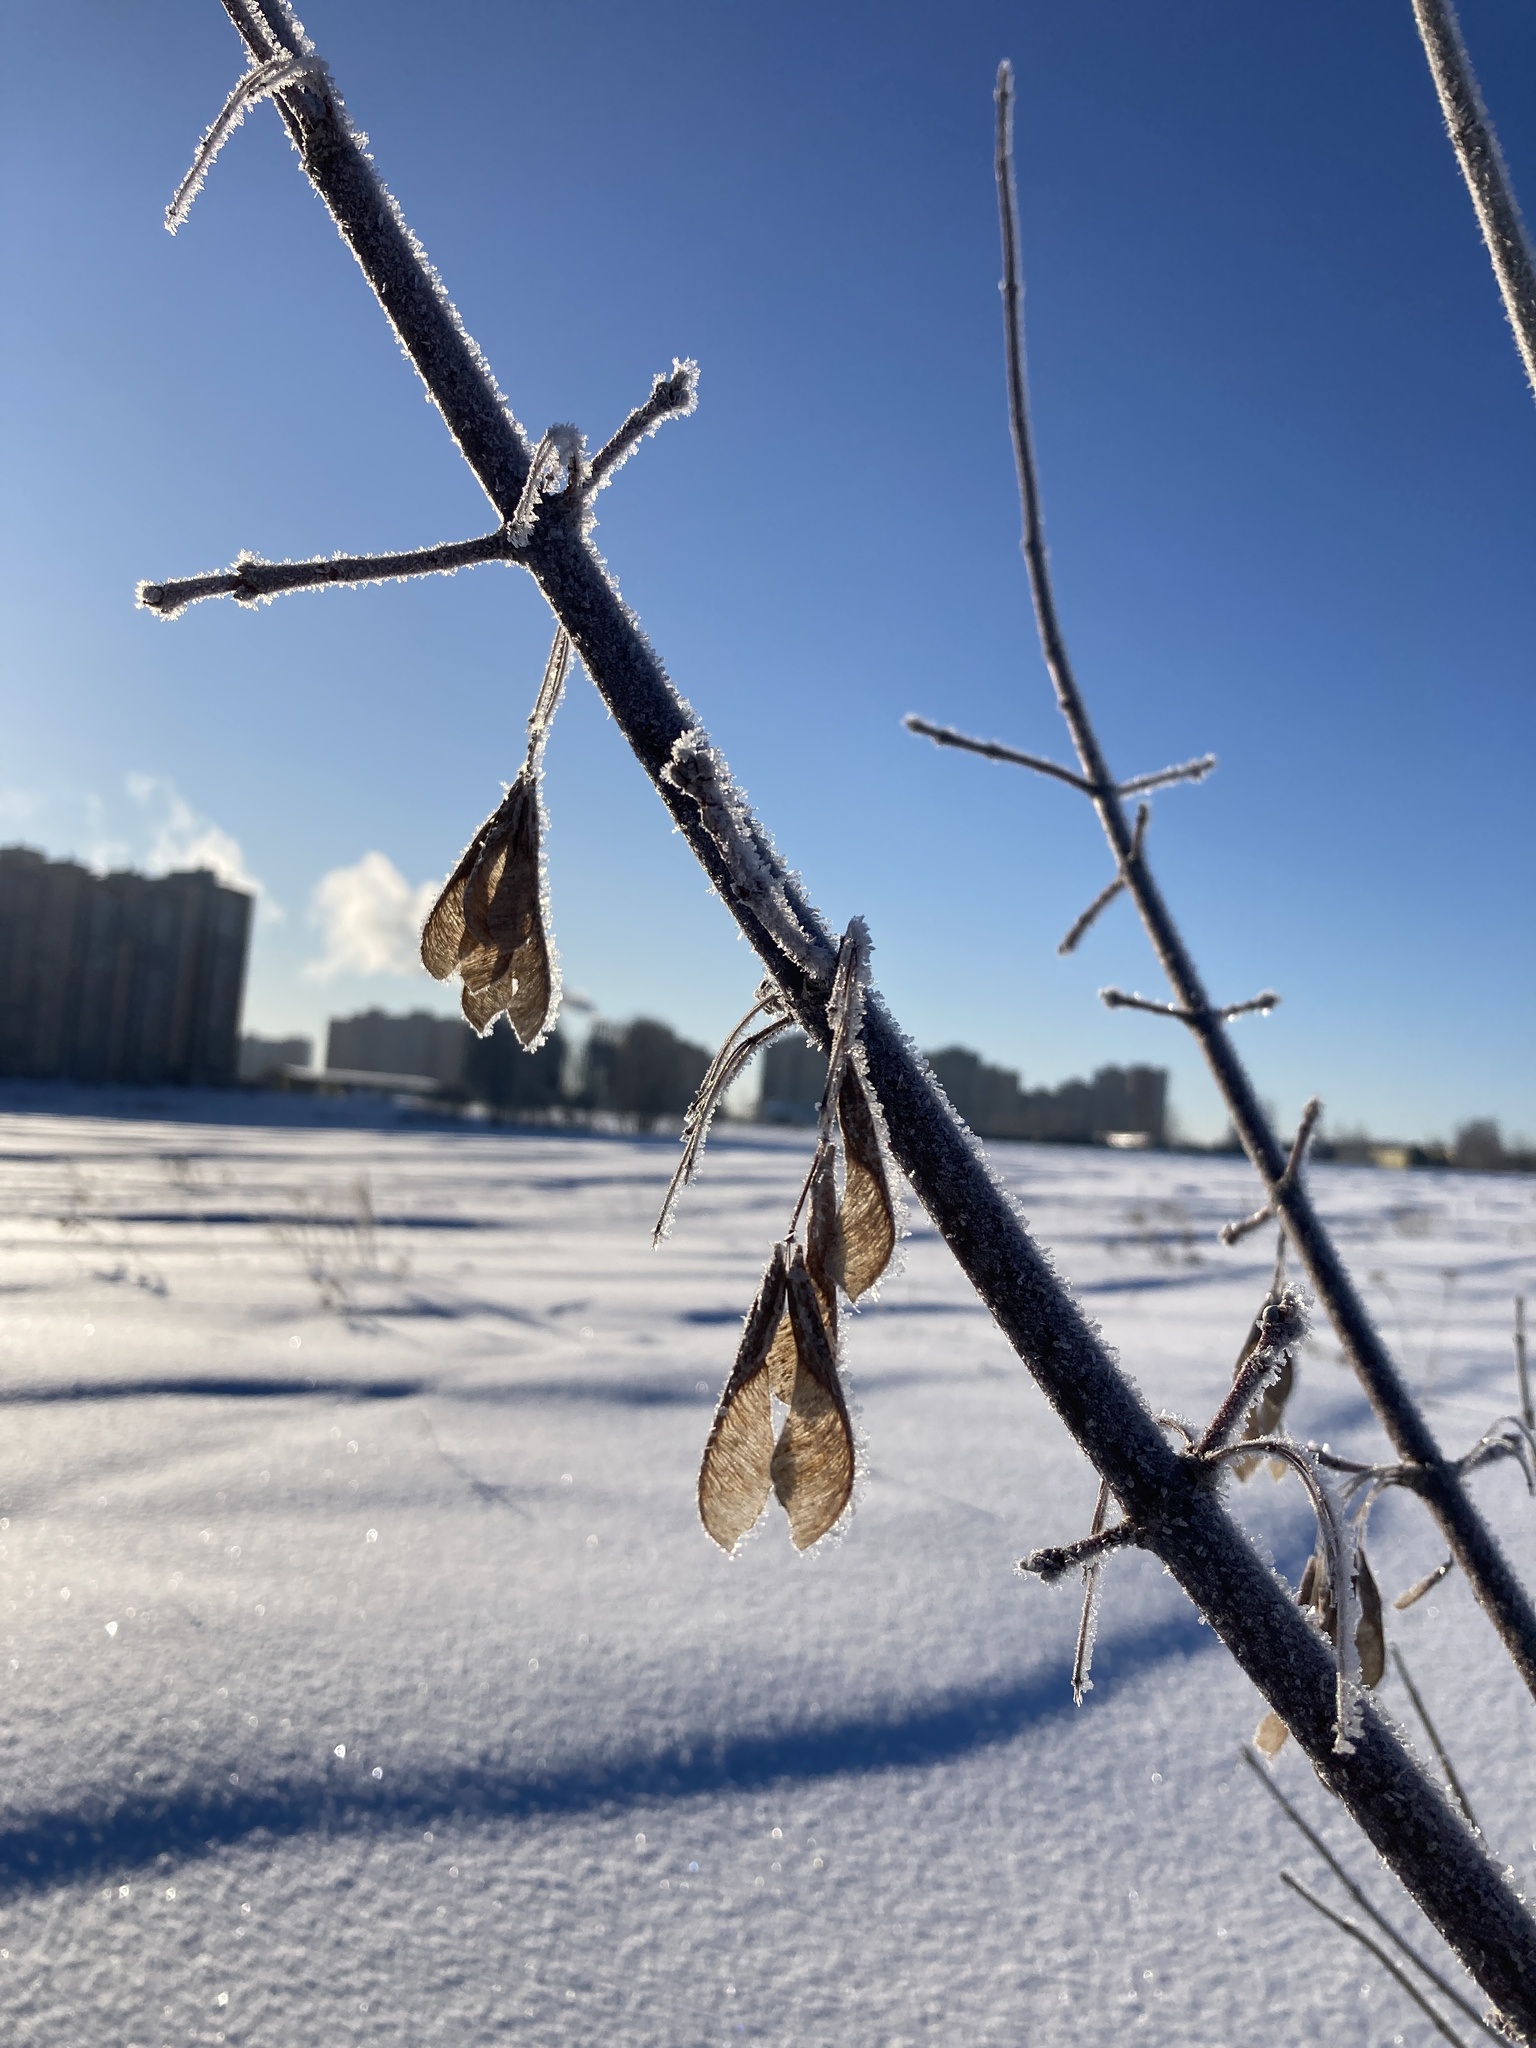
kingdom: Plantae
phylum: Tracheophyta
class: Magnoliopsida
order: Sapindales
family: Sapindaceae
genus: Acer
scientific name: Acer negundo
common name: Ashleaf maple
